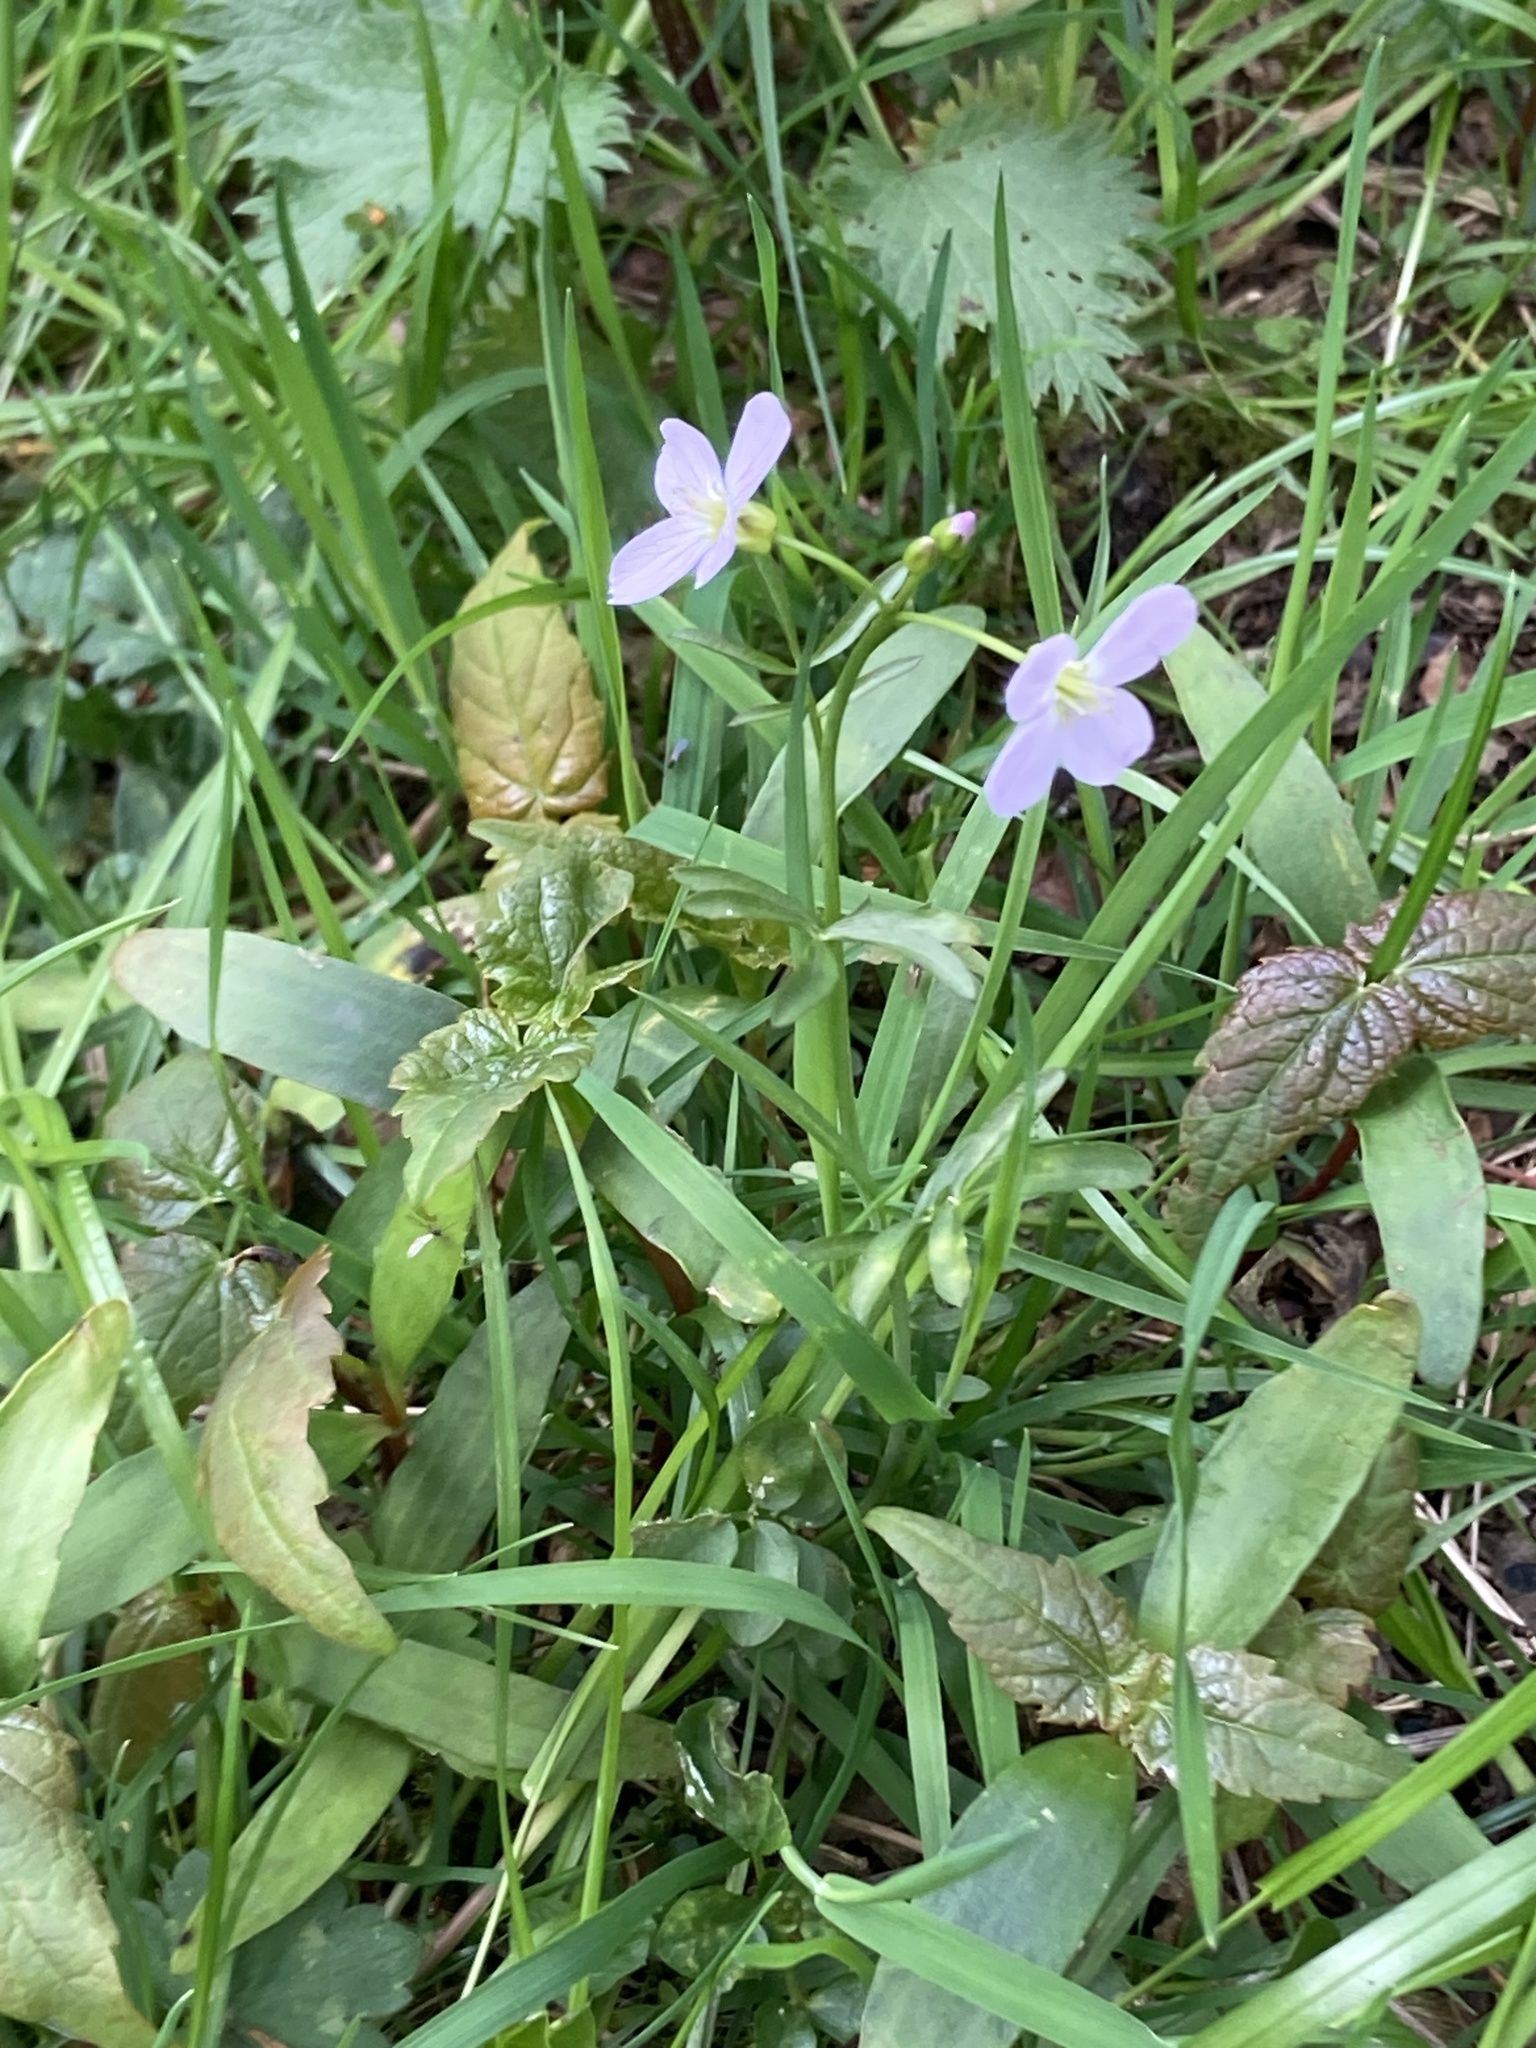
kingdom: Plantae
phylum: Tracheophyta
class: Magnoliopsida
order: Brassicales
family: Brassicaceae
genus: Cardamine
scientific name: Cardamine pratensis
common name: Cuckoo flower
